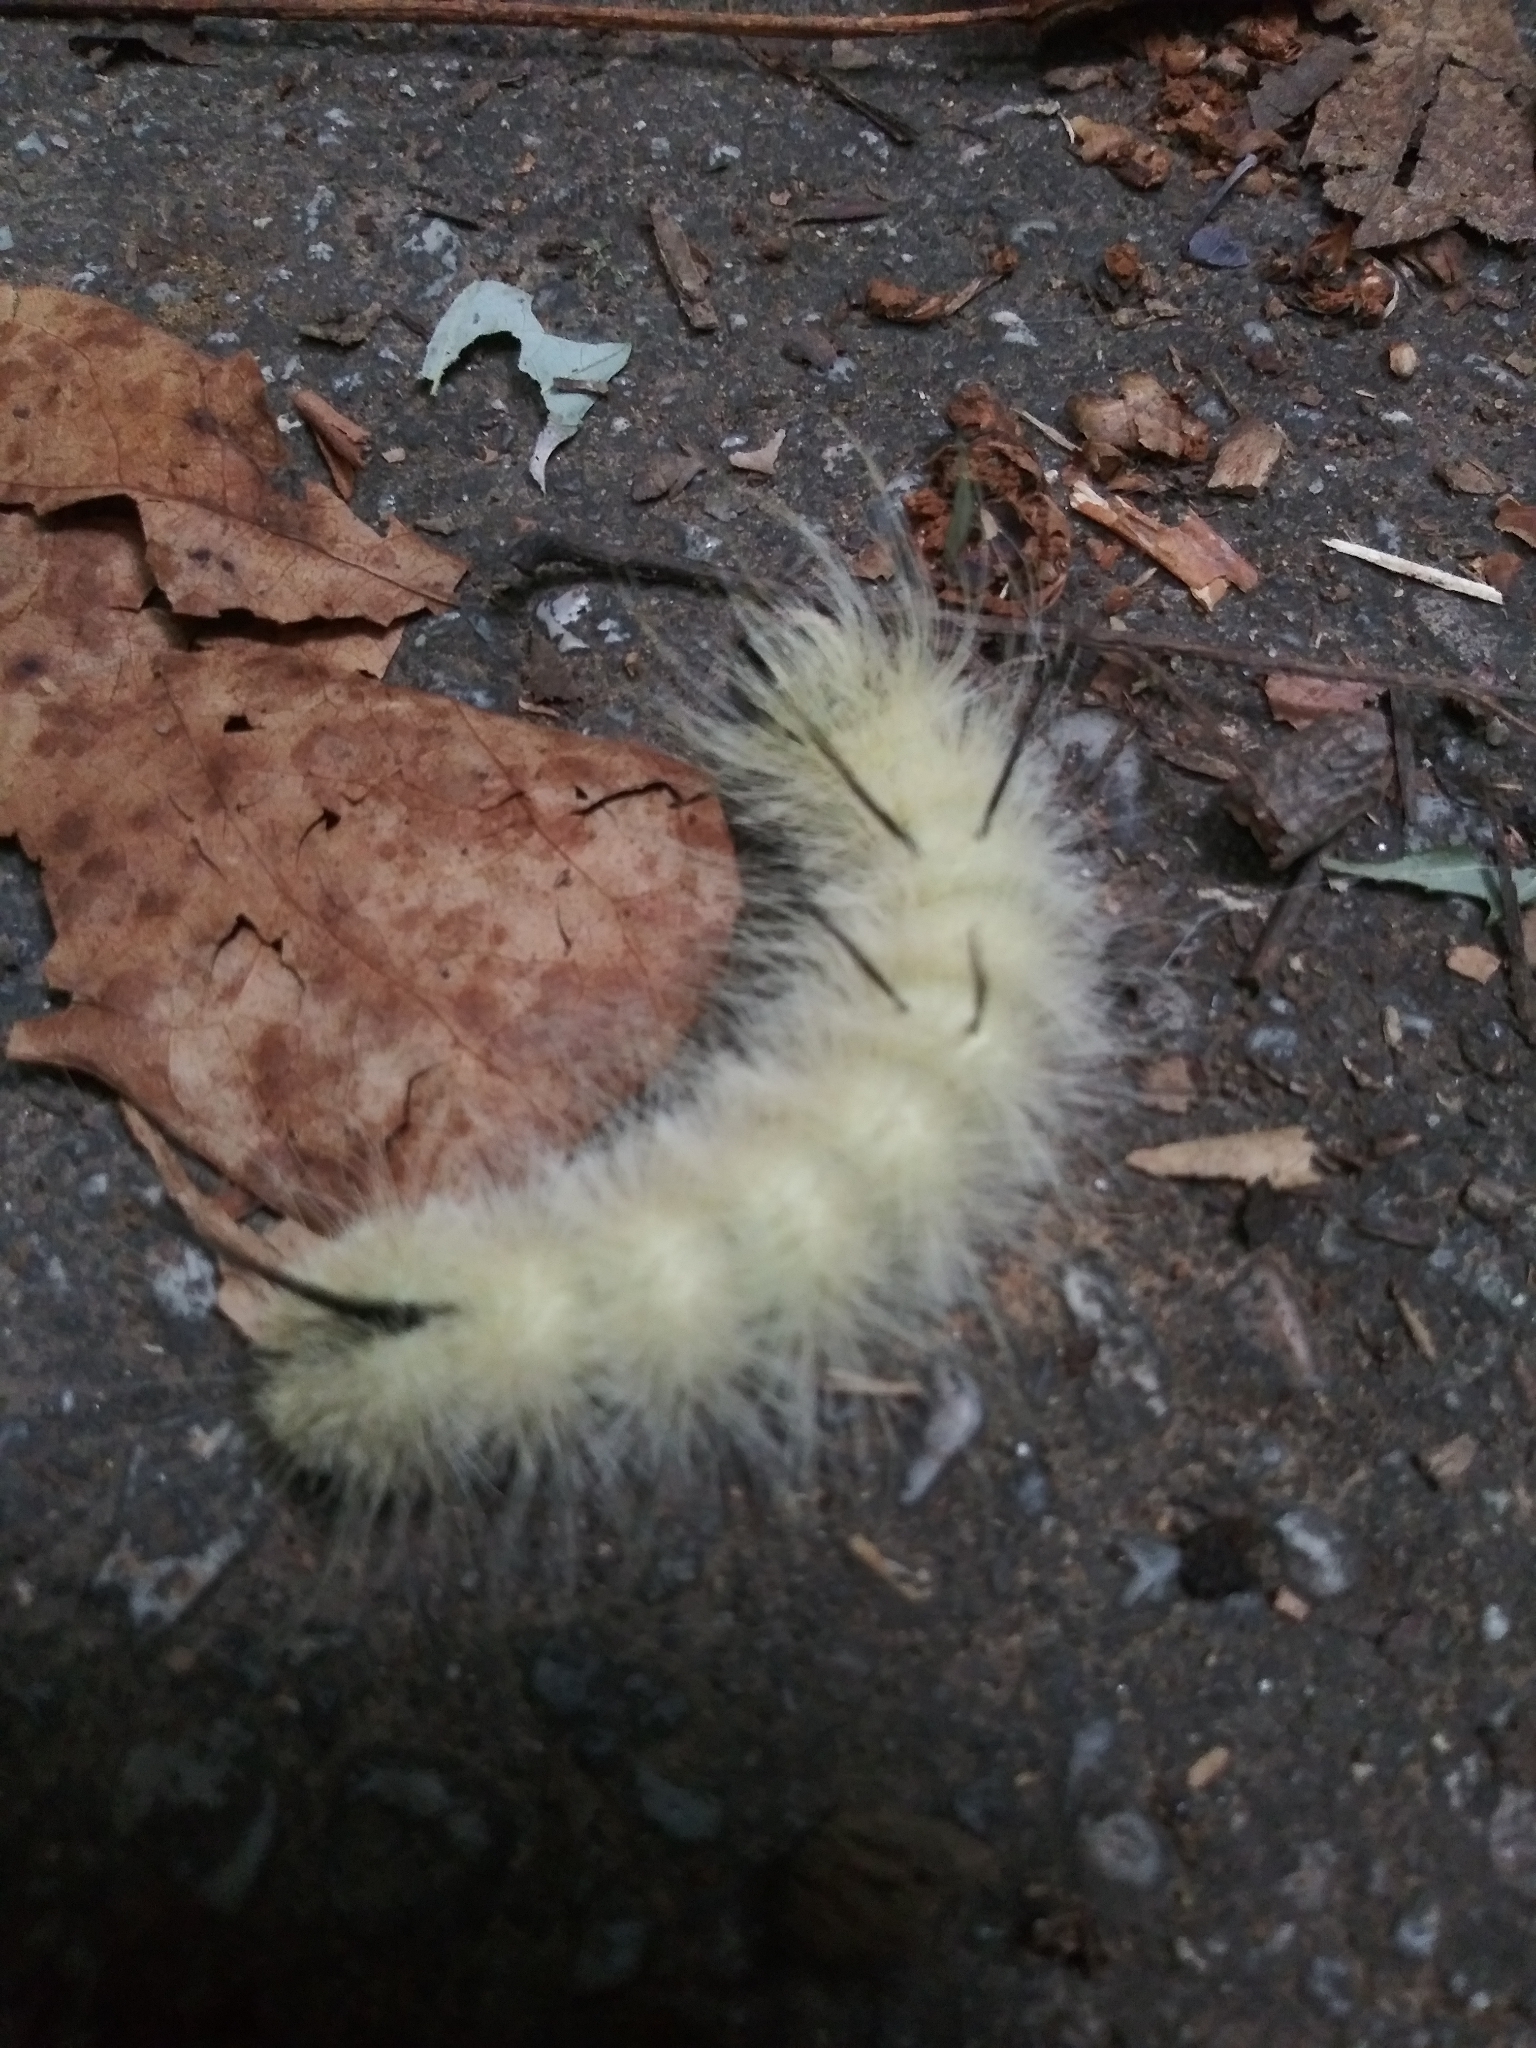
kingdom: Animalia
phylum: Arthropoda
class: Insecta
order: Lepidoptera
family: Noctuidae
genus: Acronicta
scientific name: Acronicta americana
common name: American dagger
